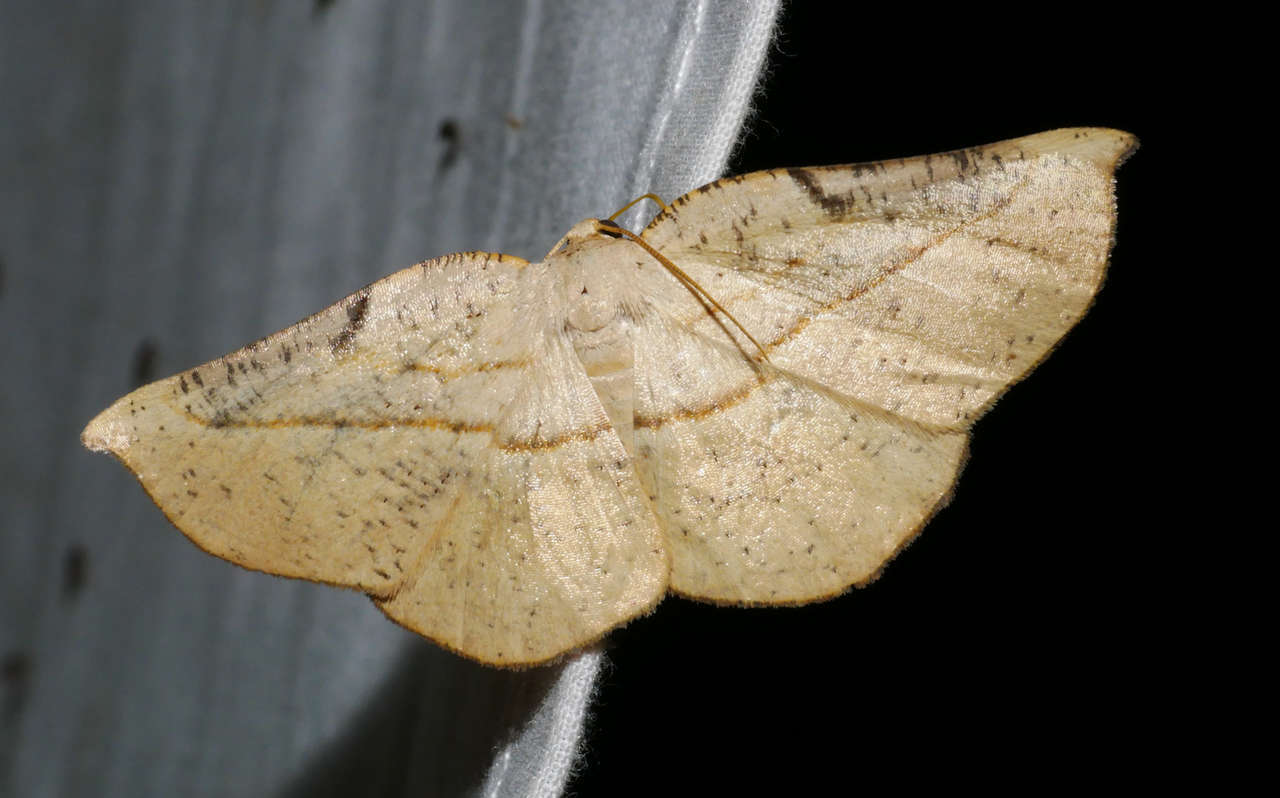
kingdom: Animalia
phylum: Arthropoda
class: Insecta
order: Lepidoptera
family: Geometridae
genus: Xenomusa
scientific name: Xenomusa monoda
